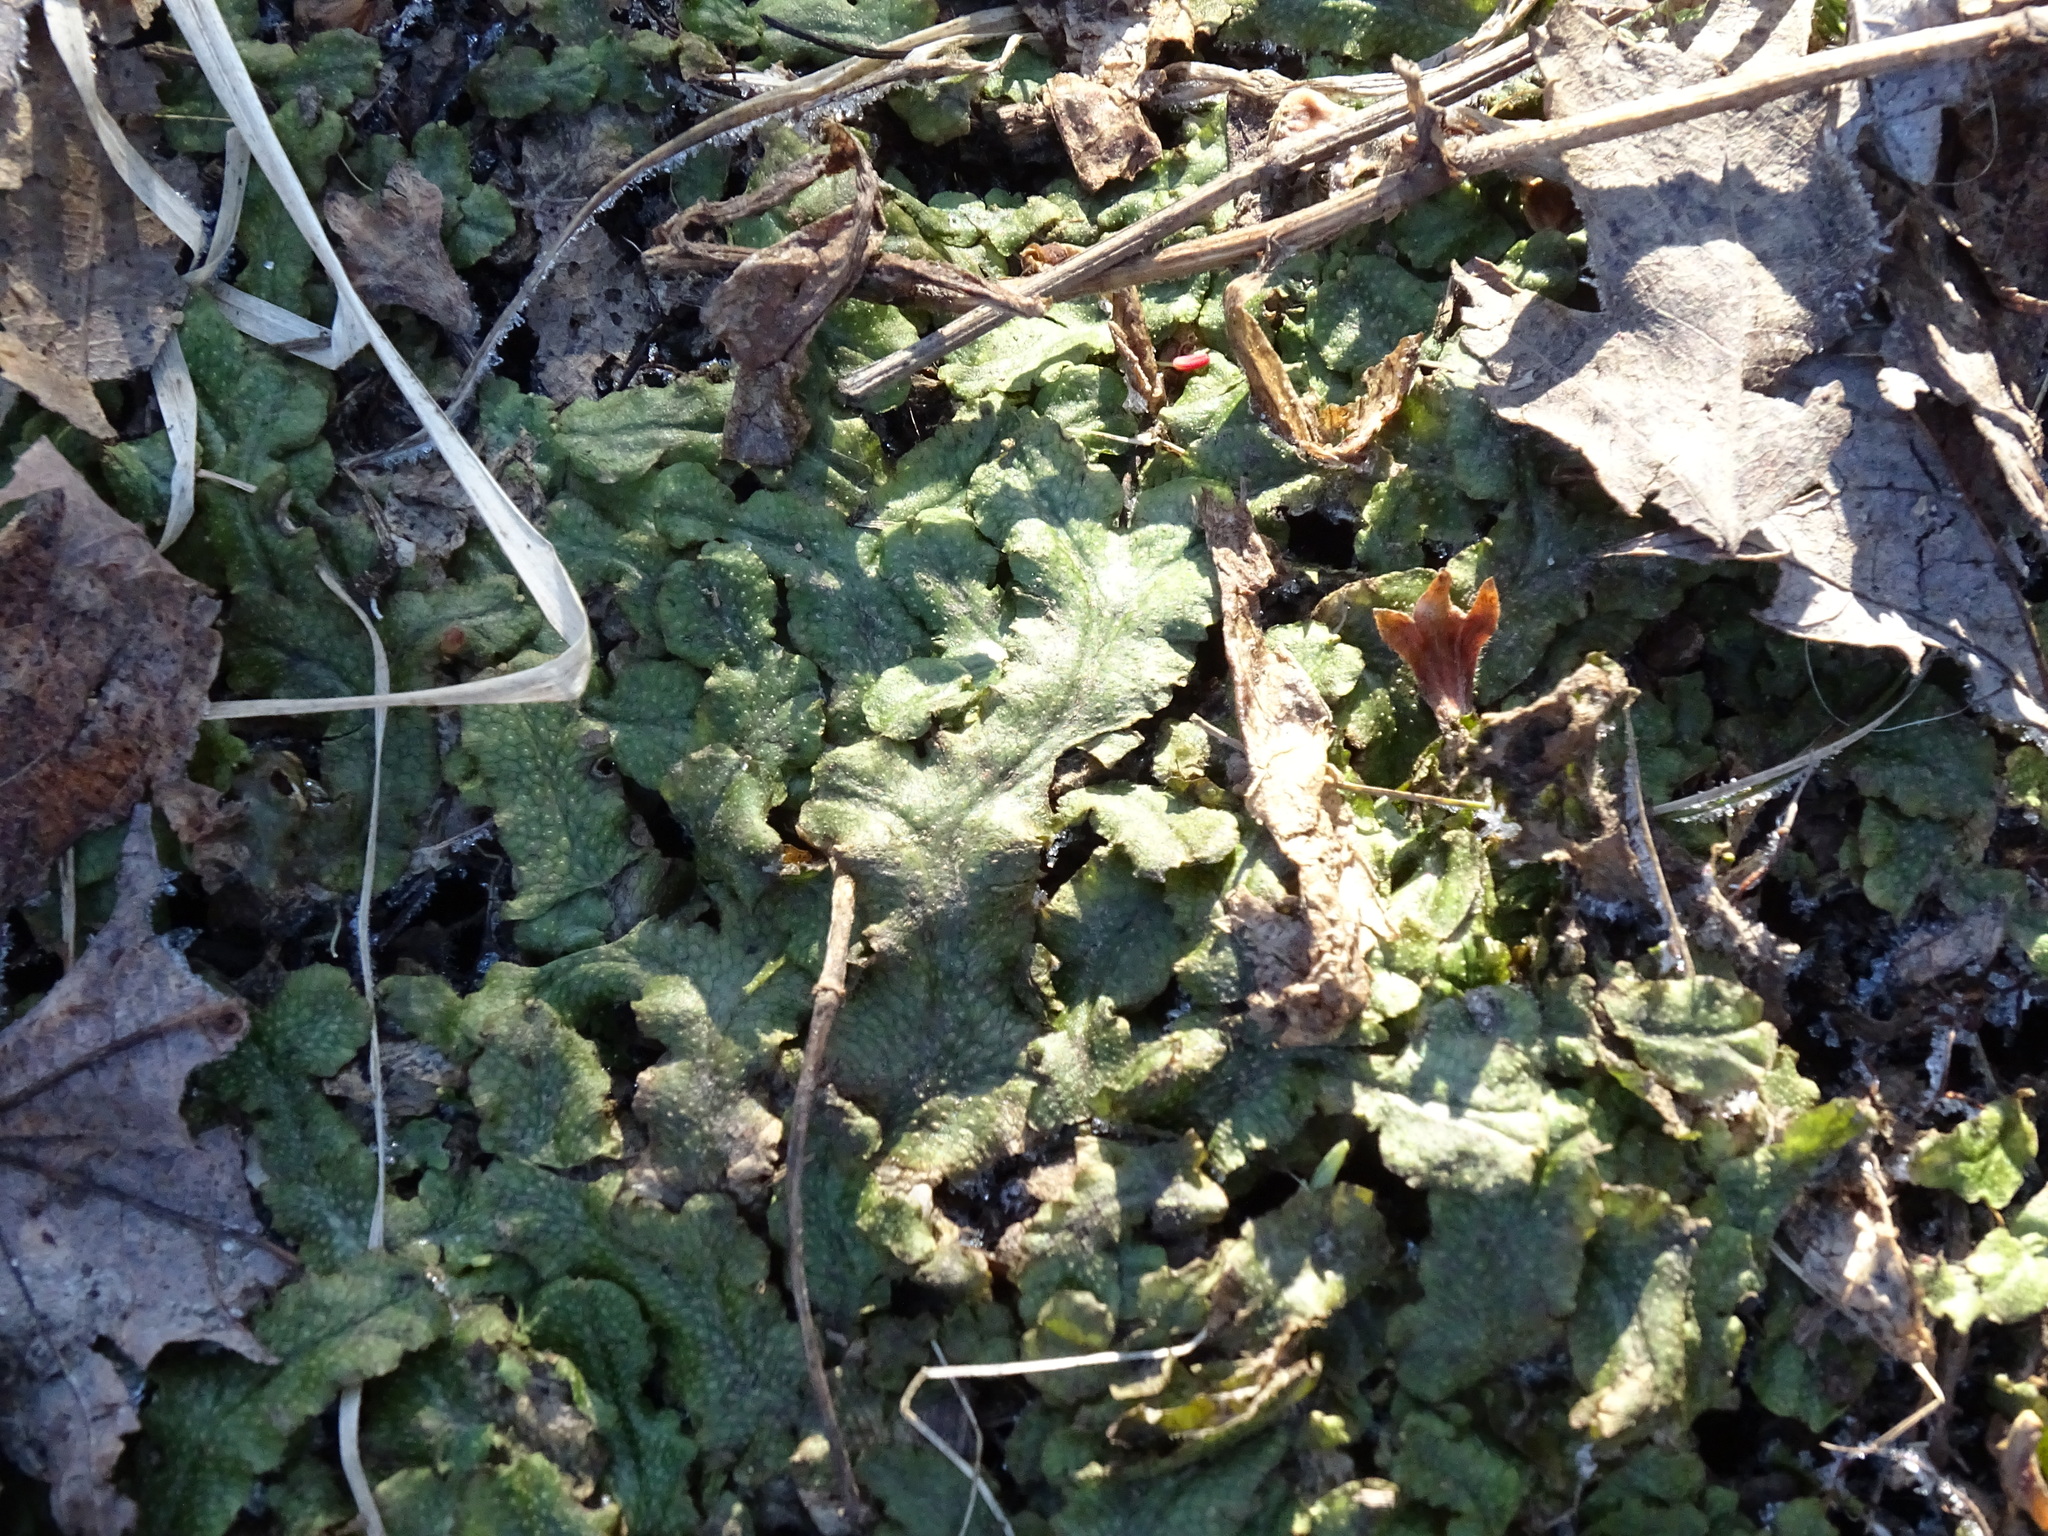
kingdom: Plantae
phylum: Marchantiophyta
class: Marchantiopsida
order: Marchantiales
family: Conocephalaceae
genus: Conocephalum
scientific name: Conocephalum salebrosum
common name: Cat-tongue liverwort
